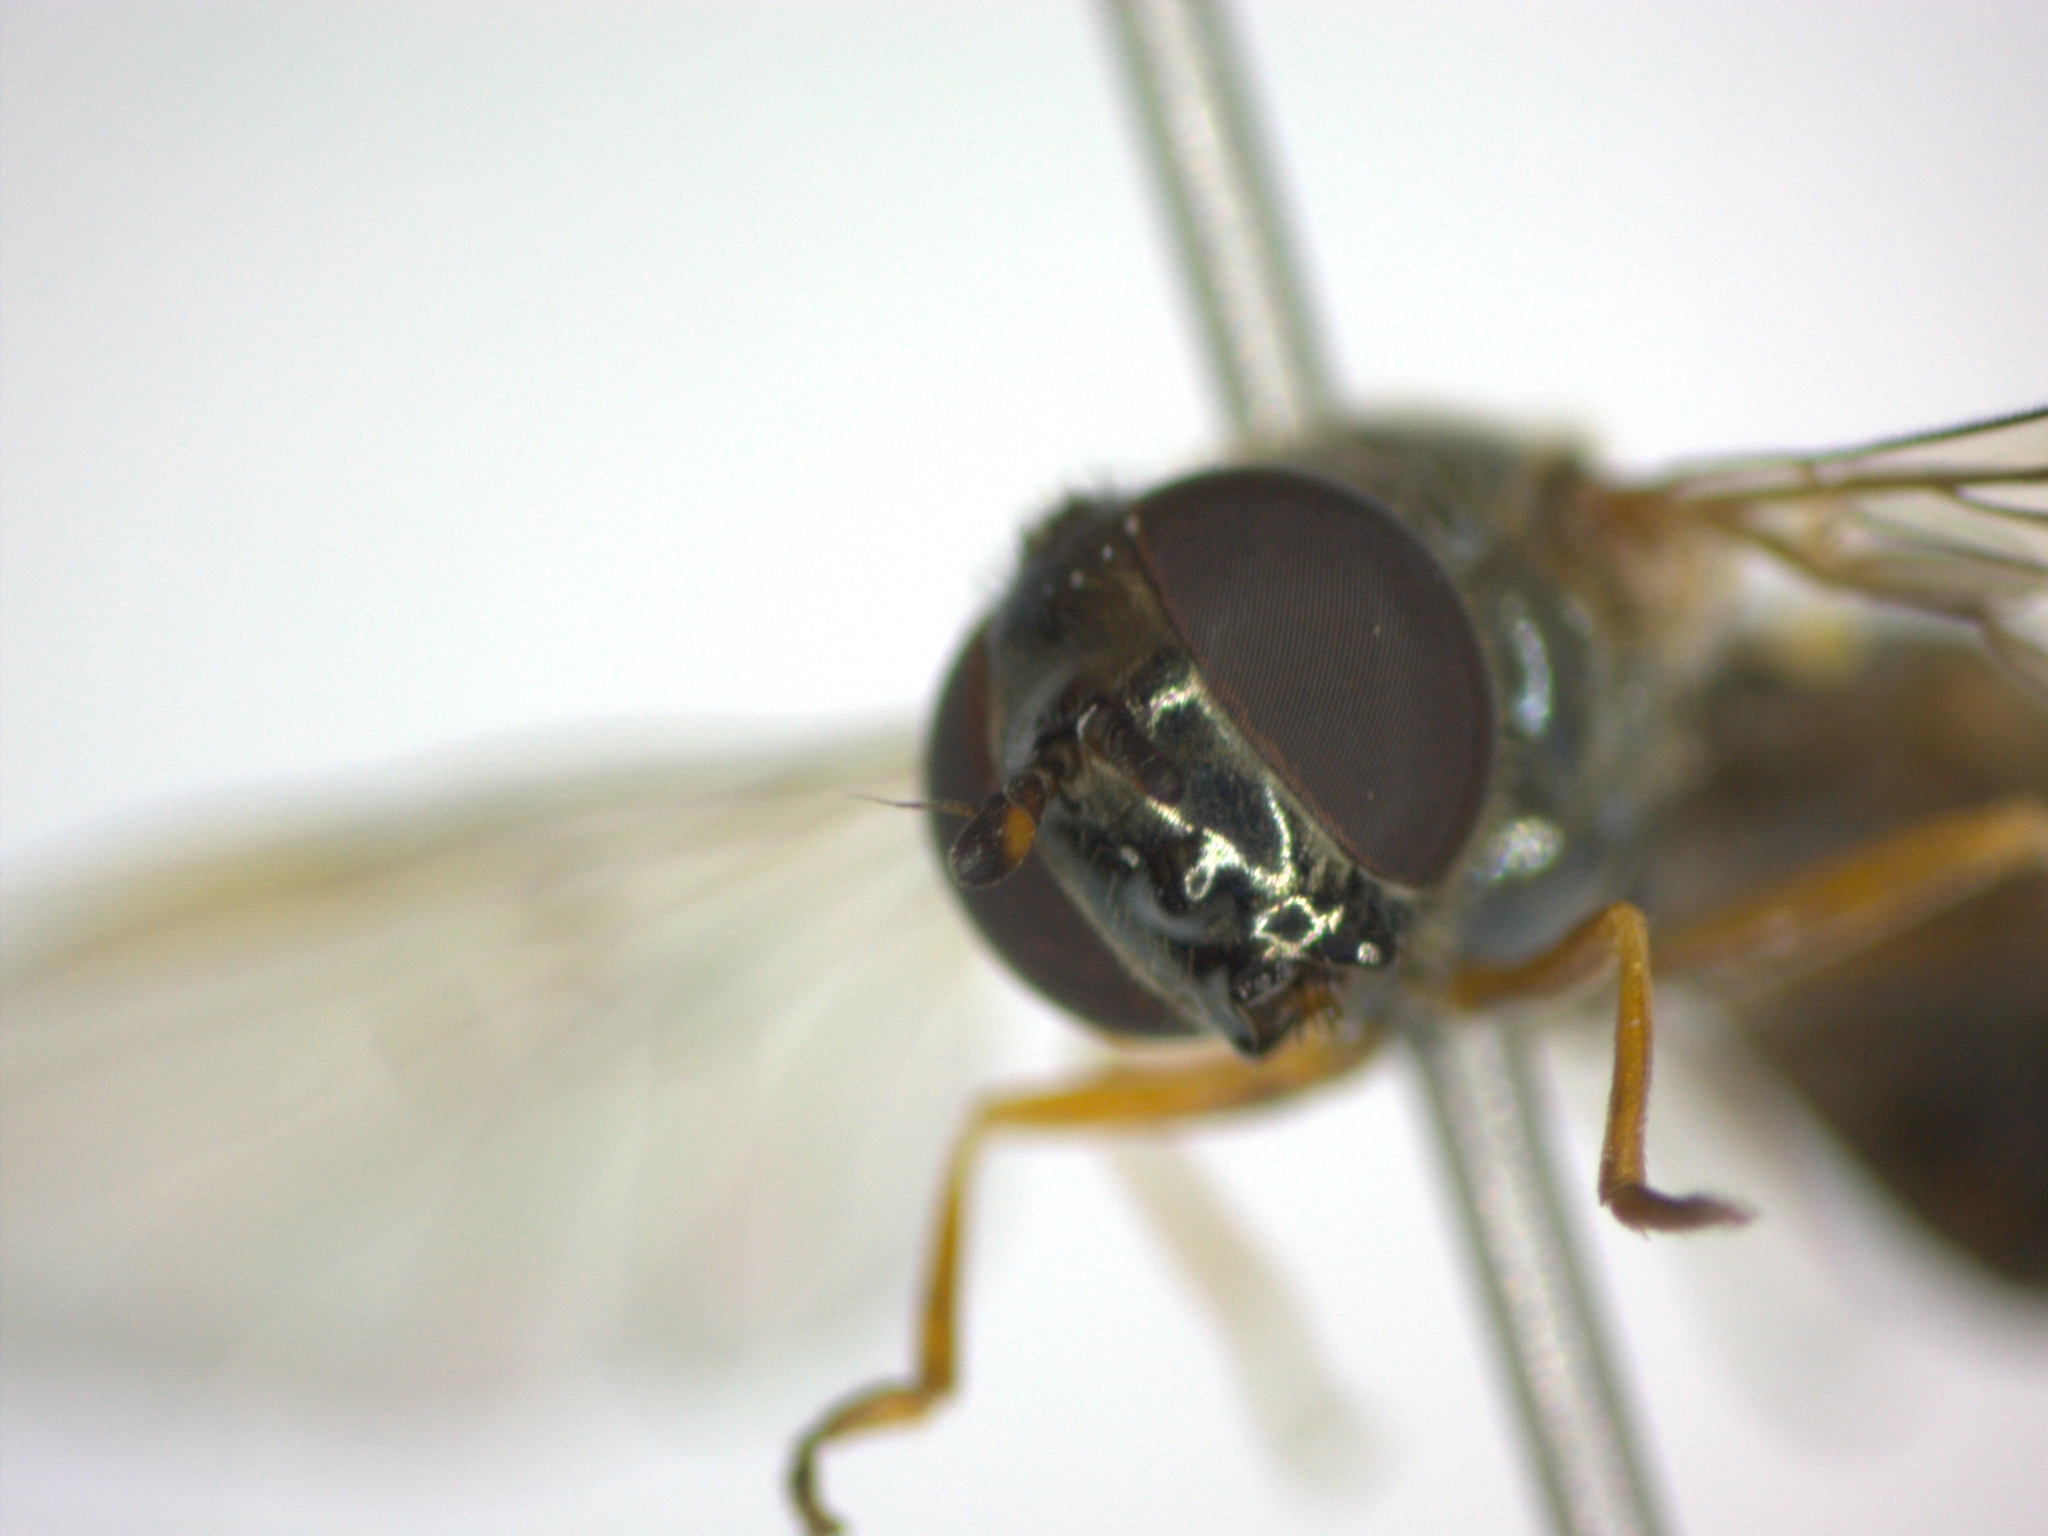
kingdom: Animalia
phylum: Arthropoda
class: Insecta
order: Diptera
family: Syrphidae
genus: Melanostoma
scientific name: Melanostoma scalare
